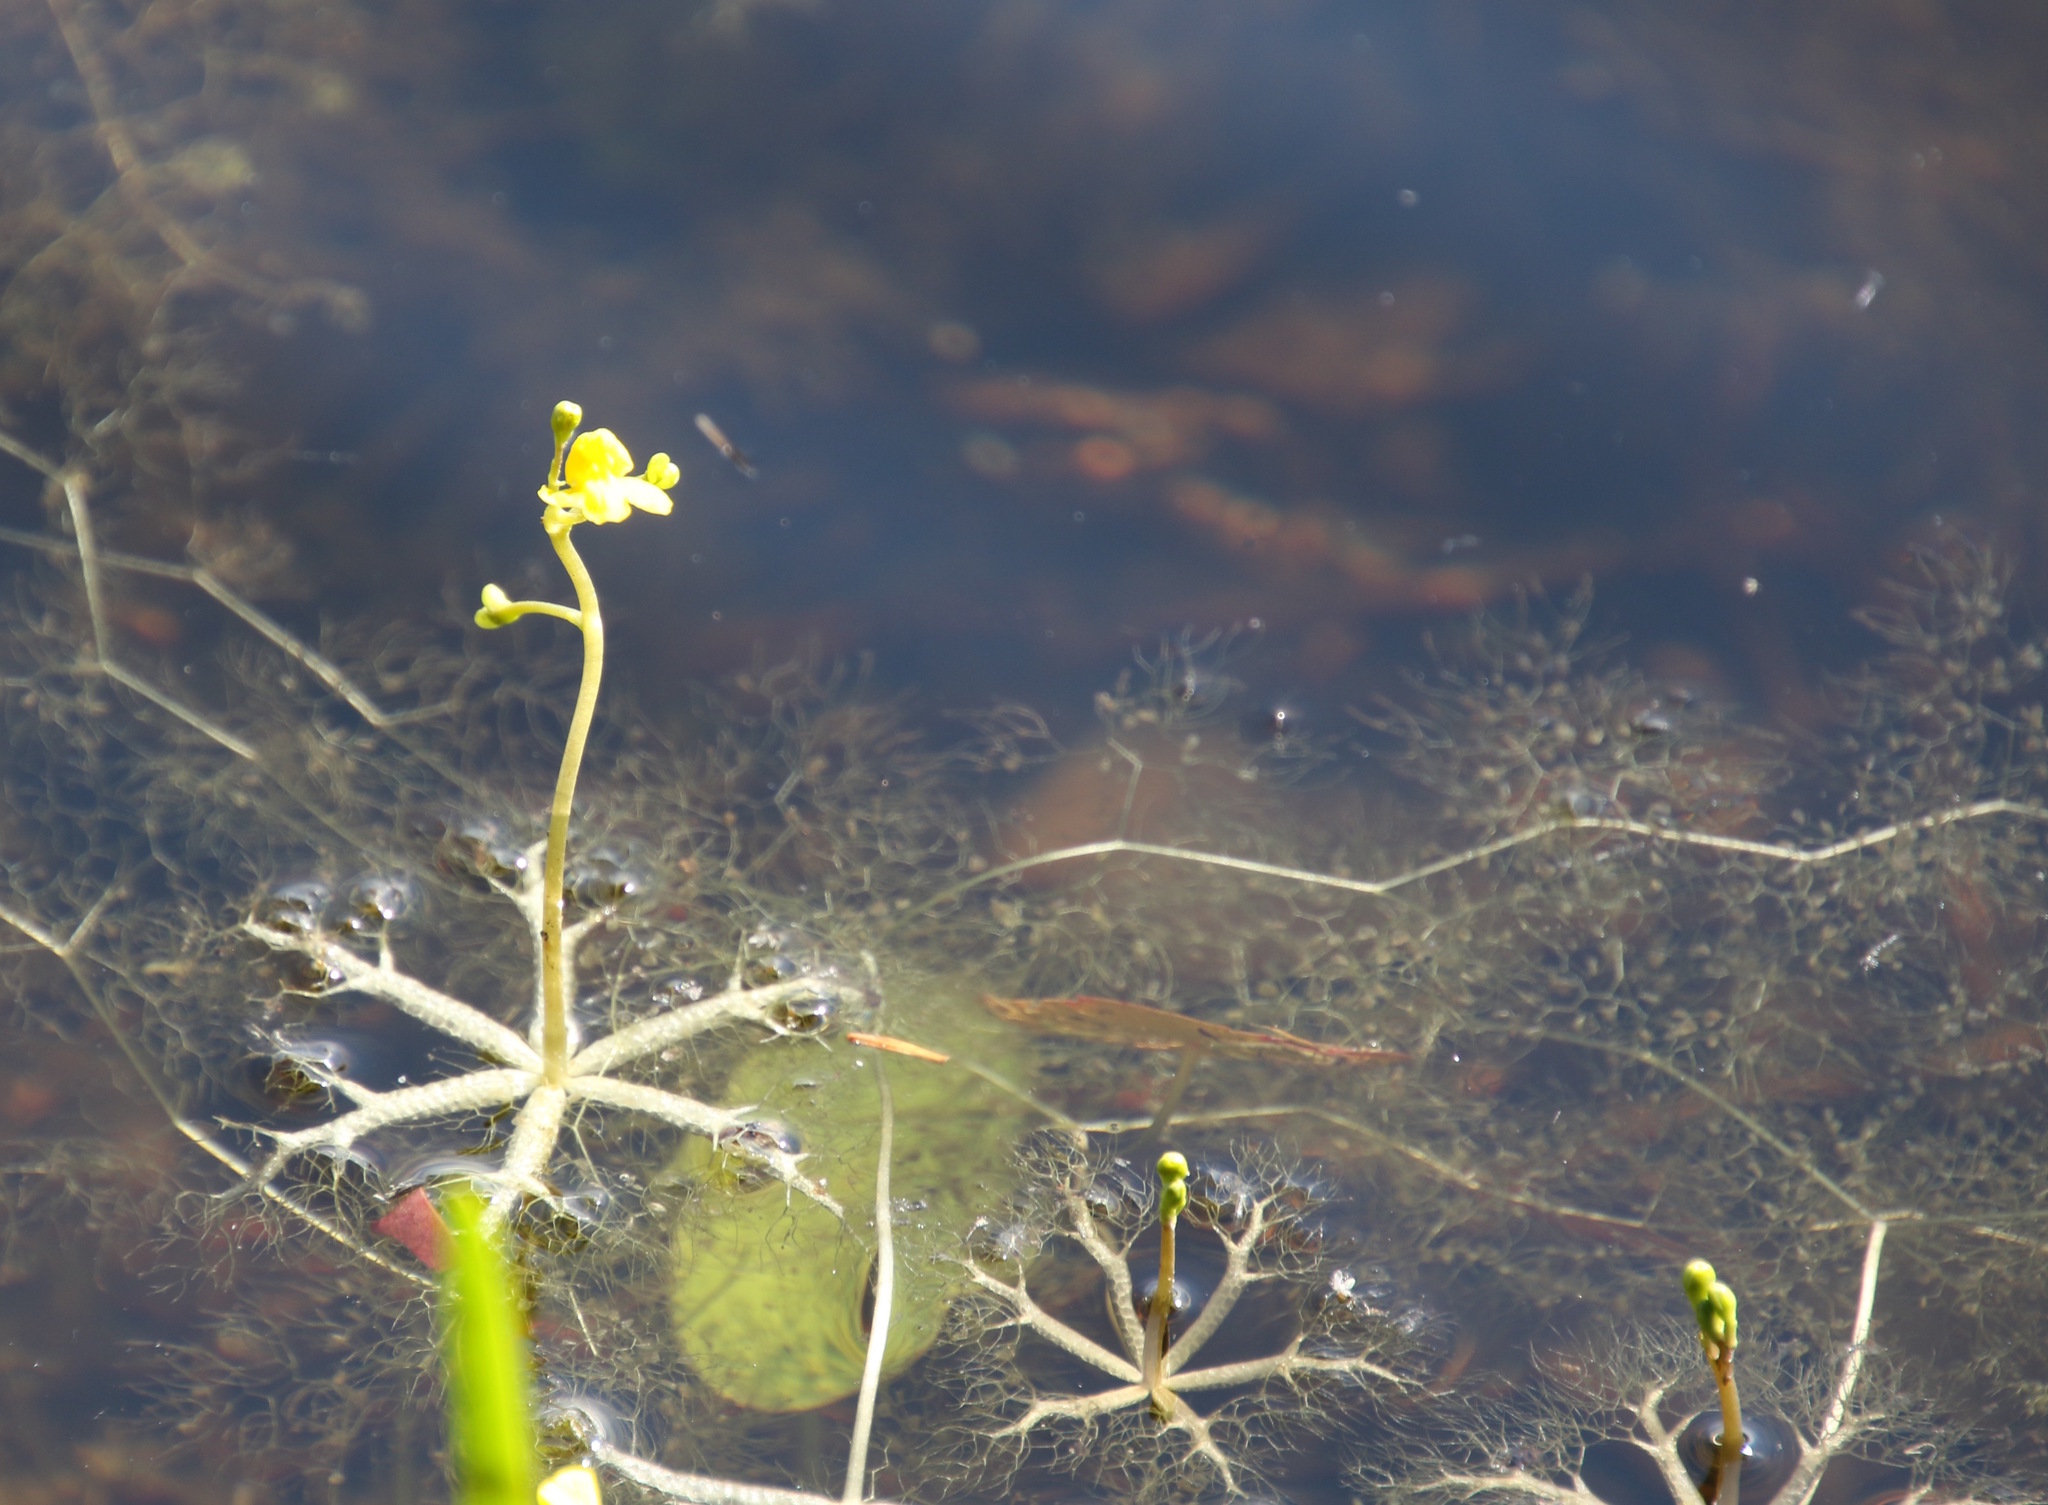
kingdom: Plantae
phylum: Tracheophyta
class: Magnoliopsida
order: Lamiales
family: Lentibulariaceae
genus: Utricularia
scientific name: Utricularia radiata
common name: Floating bladderwort
